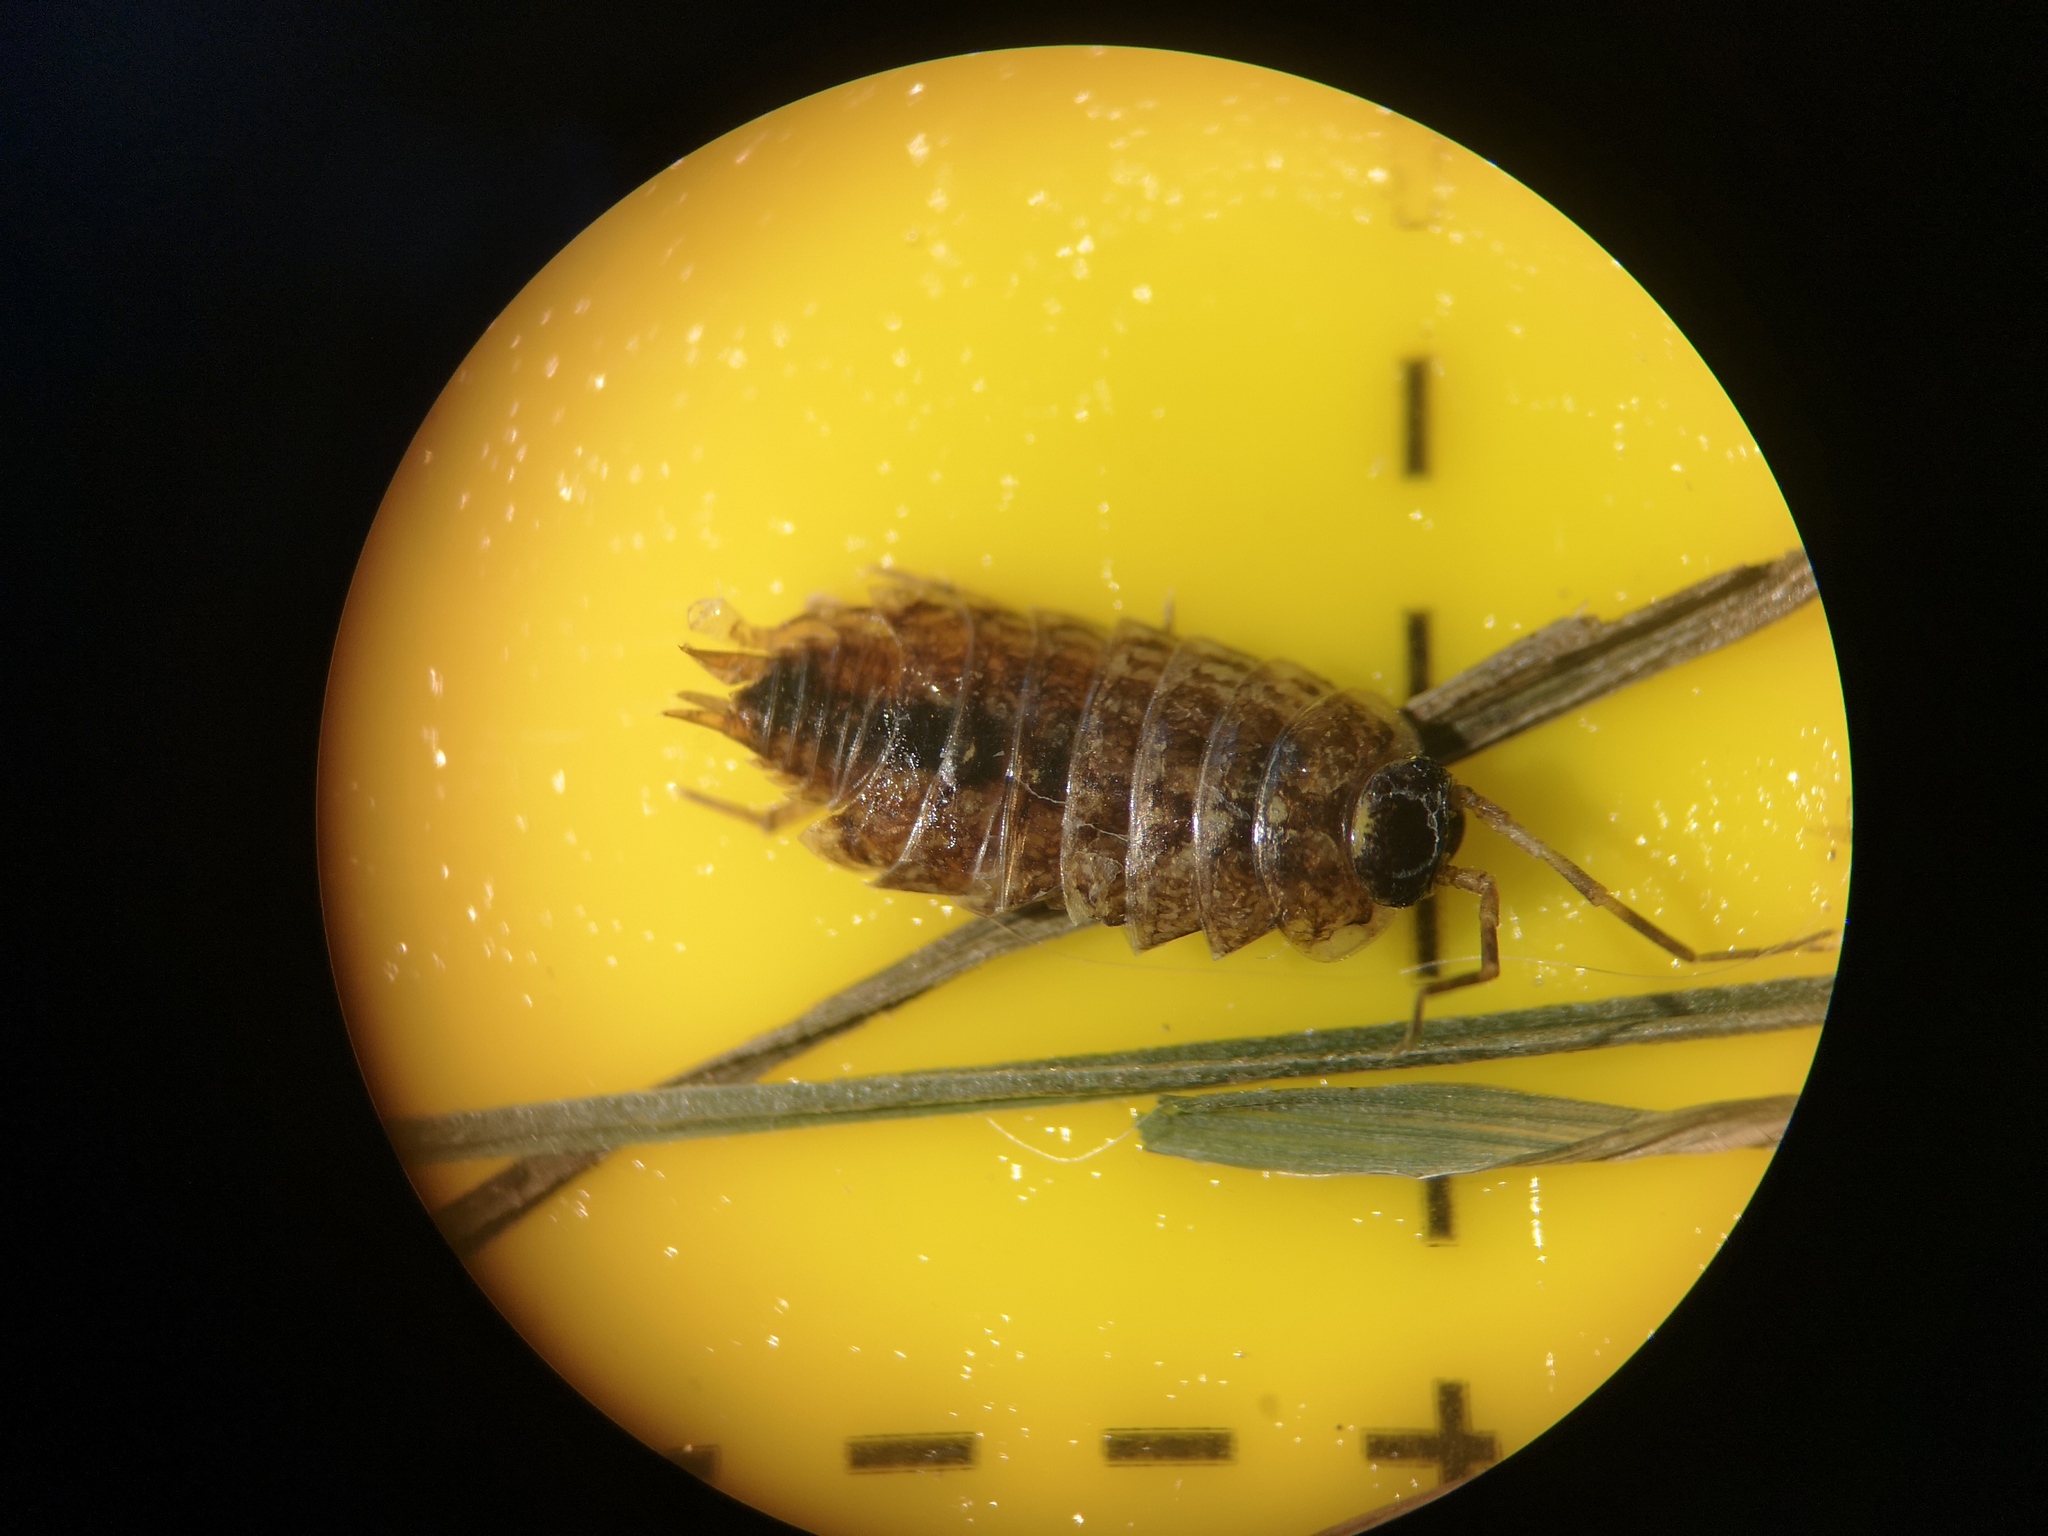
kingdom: Animalia
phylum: Arthropoda
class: Malacostraca
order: Isopoda
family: Philosciidae
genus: Philoscia
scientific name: Philoscia muscorum
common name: Common striped woodlouse
